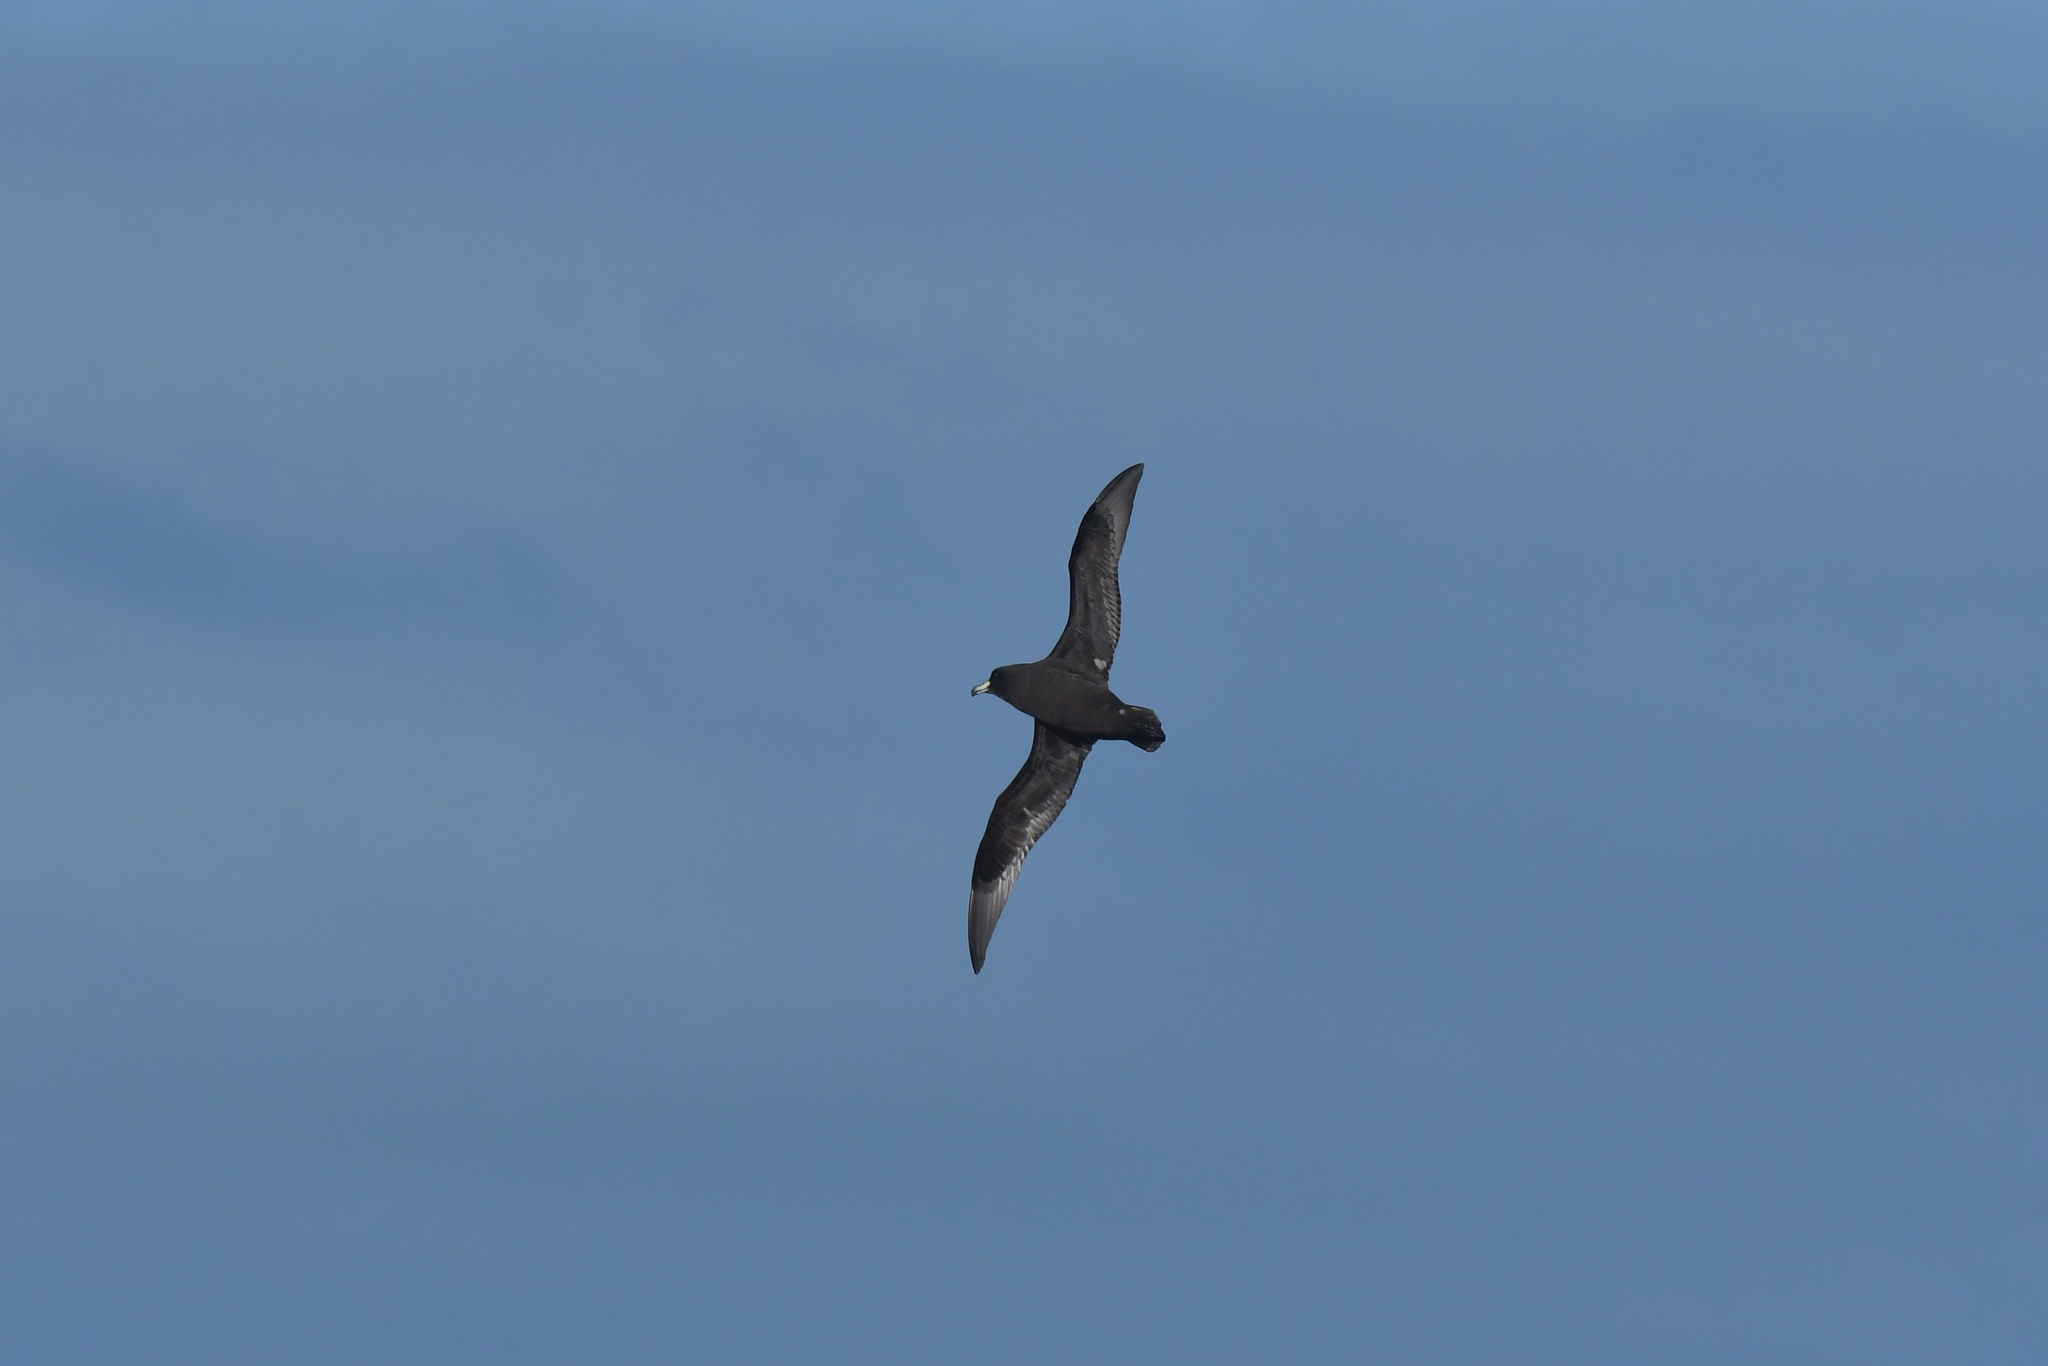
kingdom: Animalia
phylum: Chordata
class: Aves
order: Procellariiformes
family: Procellariidae
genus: Procellaria
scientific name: Procellaria westlandica
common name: Westland petrel
